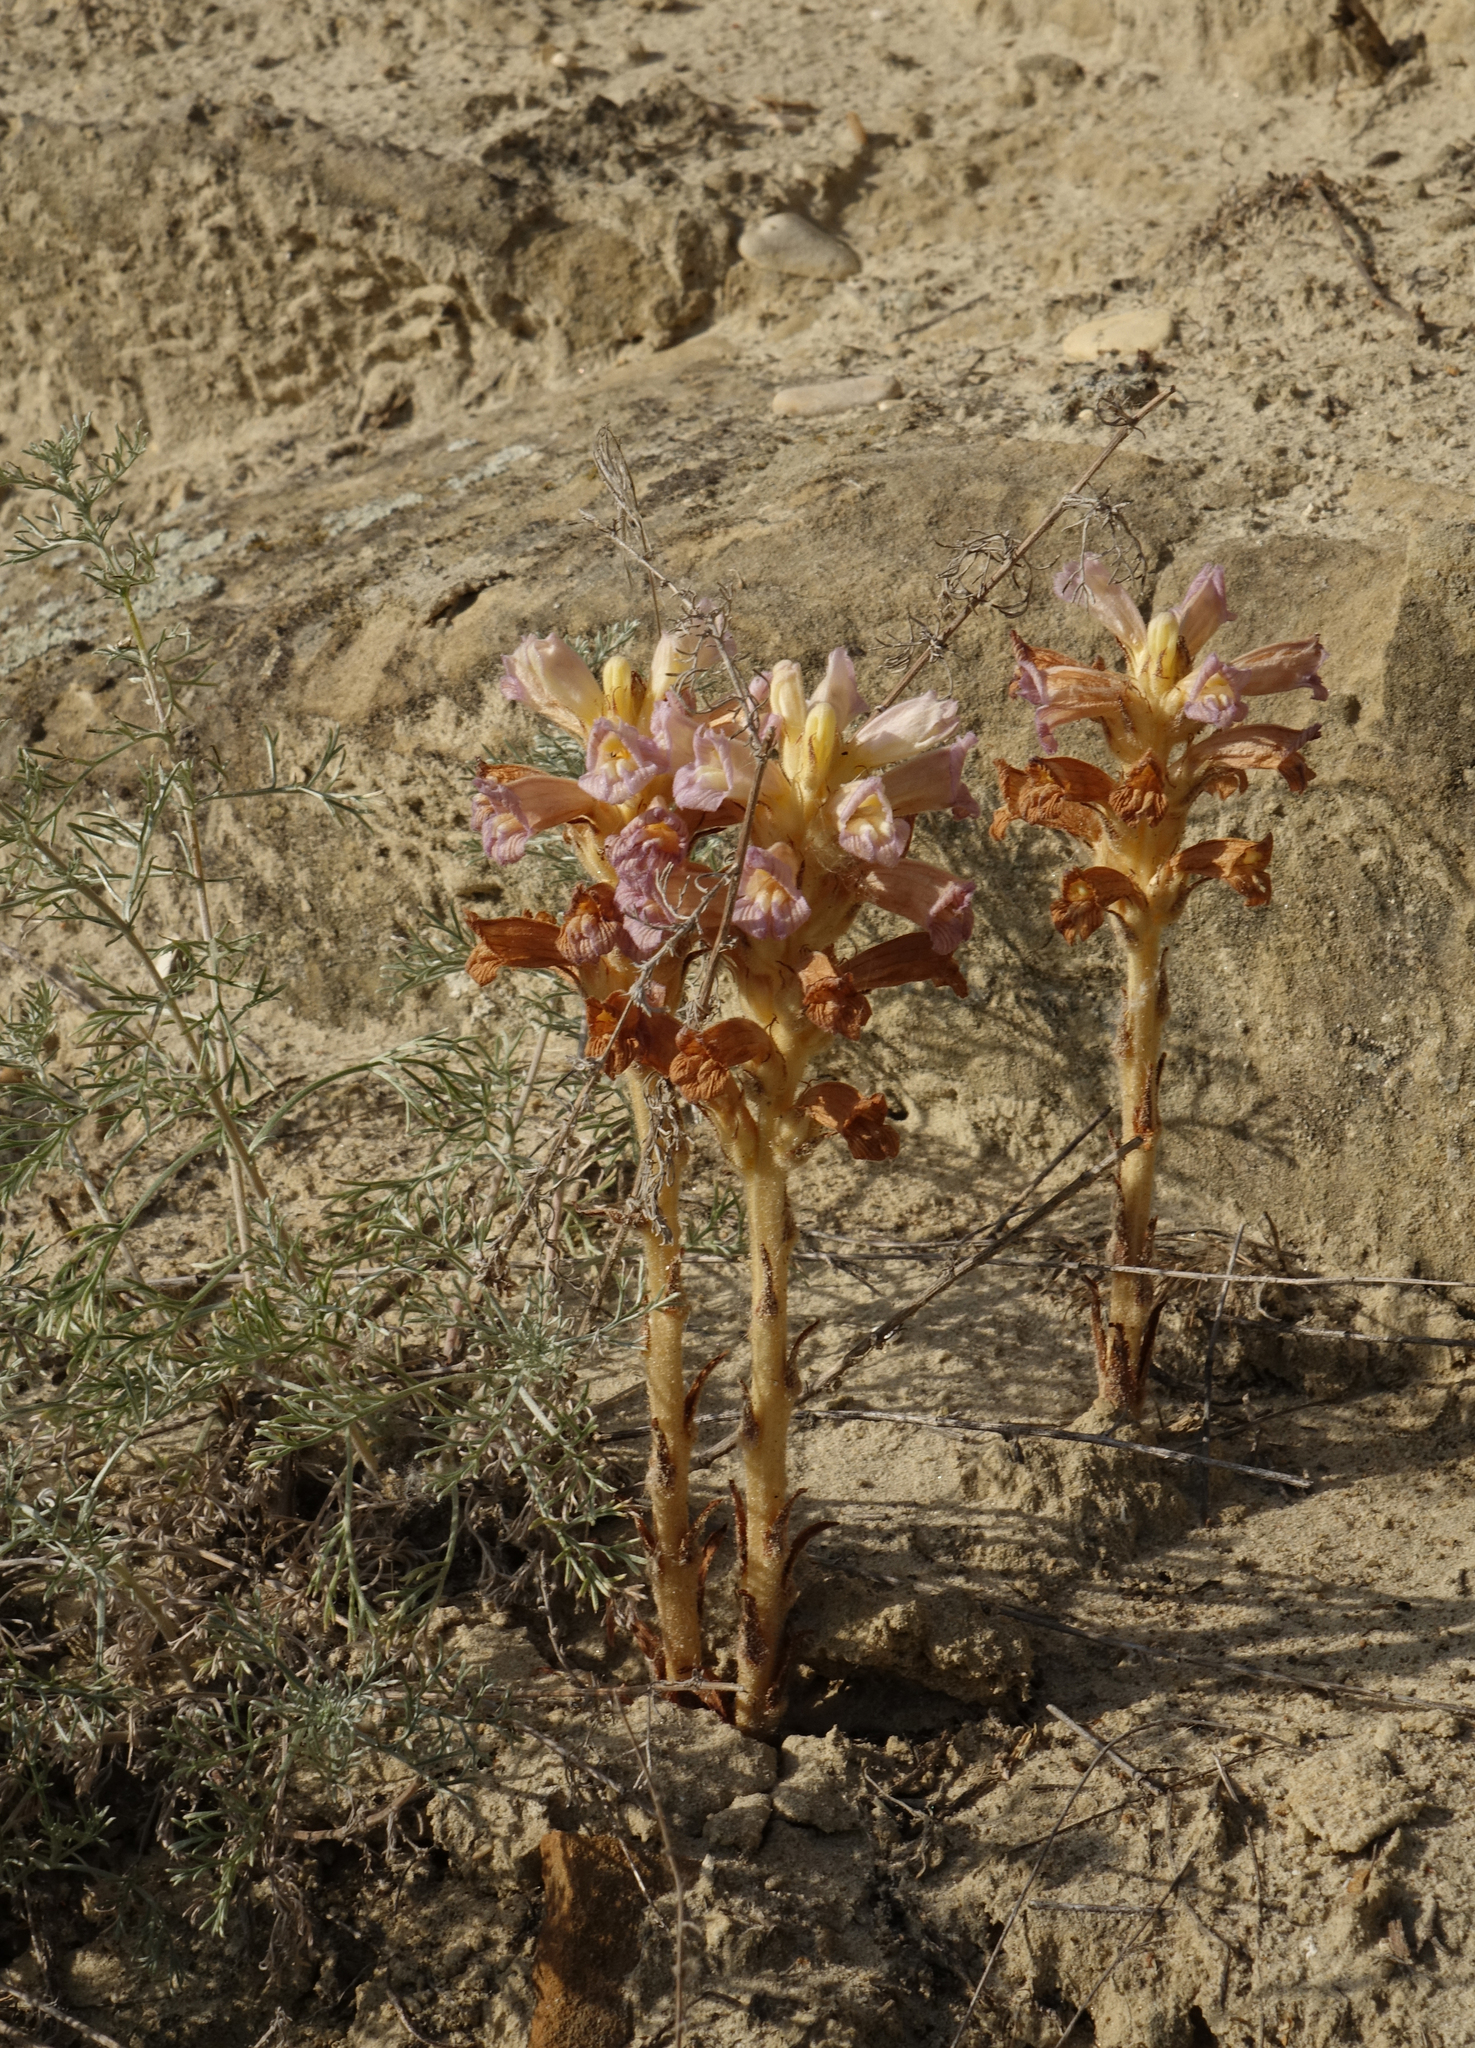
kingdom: Plantae
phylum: Tracheophyta
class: Magnoliopsida
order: Lamiales
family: Orobanchaceae
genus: Phelipanche
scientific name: Phelipanche arenaria
